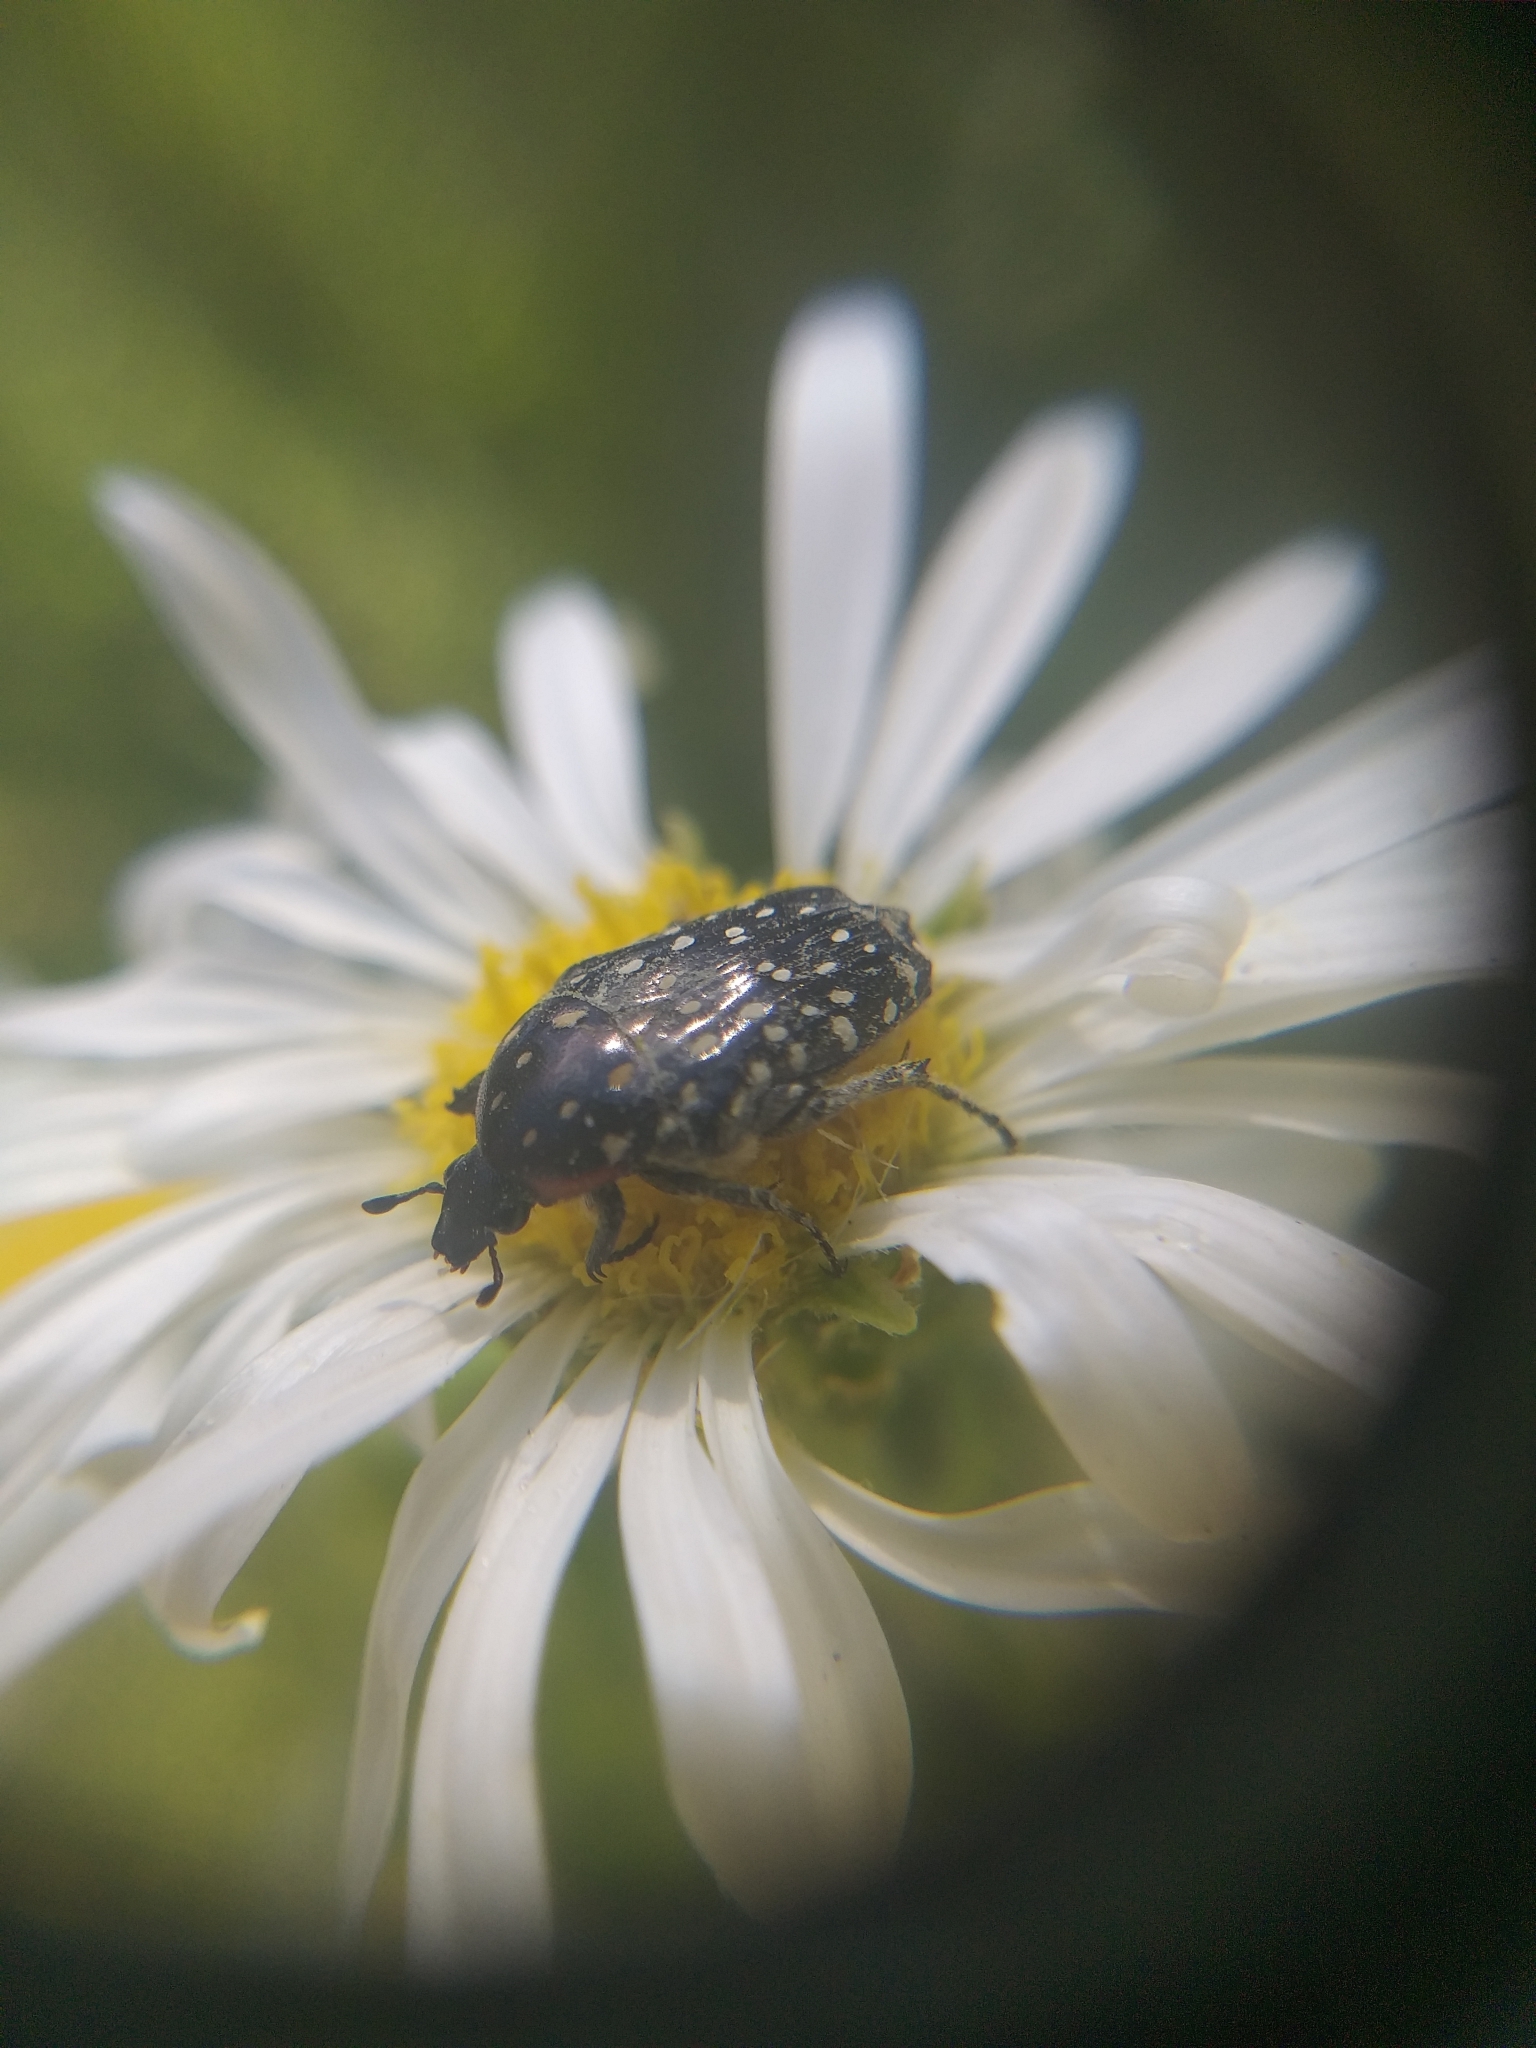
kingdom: Animalia
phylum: Arthropoda
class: Insecta
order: Coleoptera
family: Scarabaeidae
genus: Oxythyrea
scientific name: Oxythyrea
